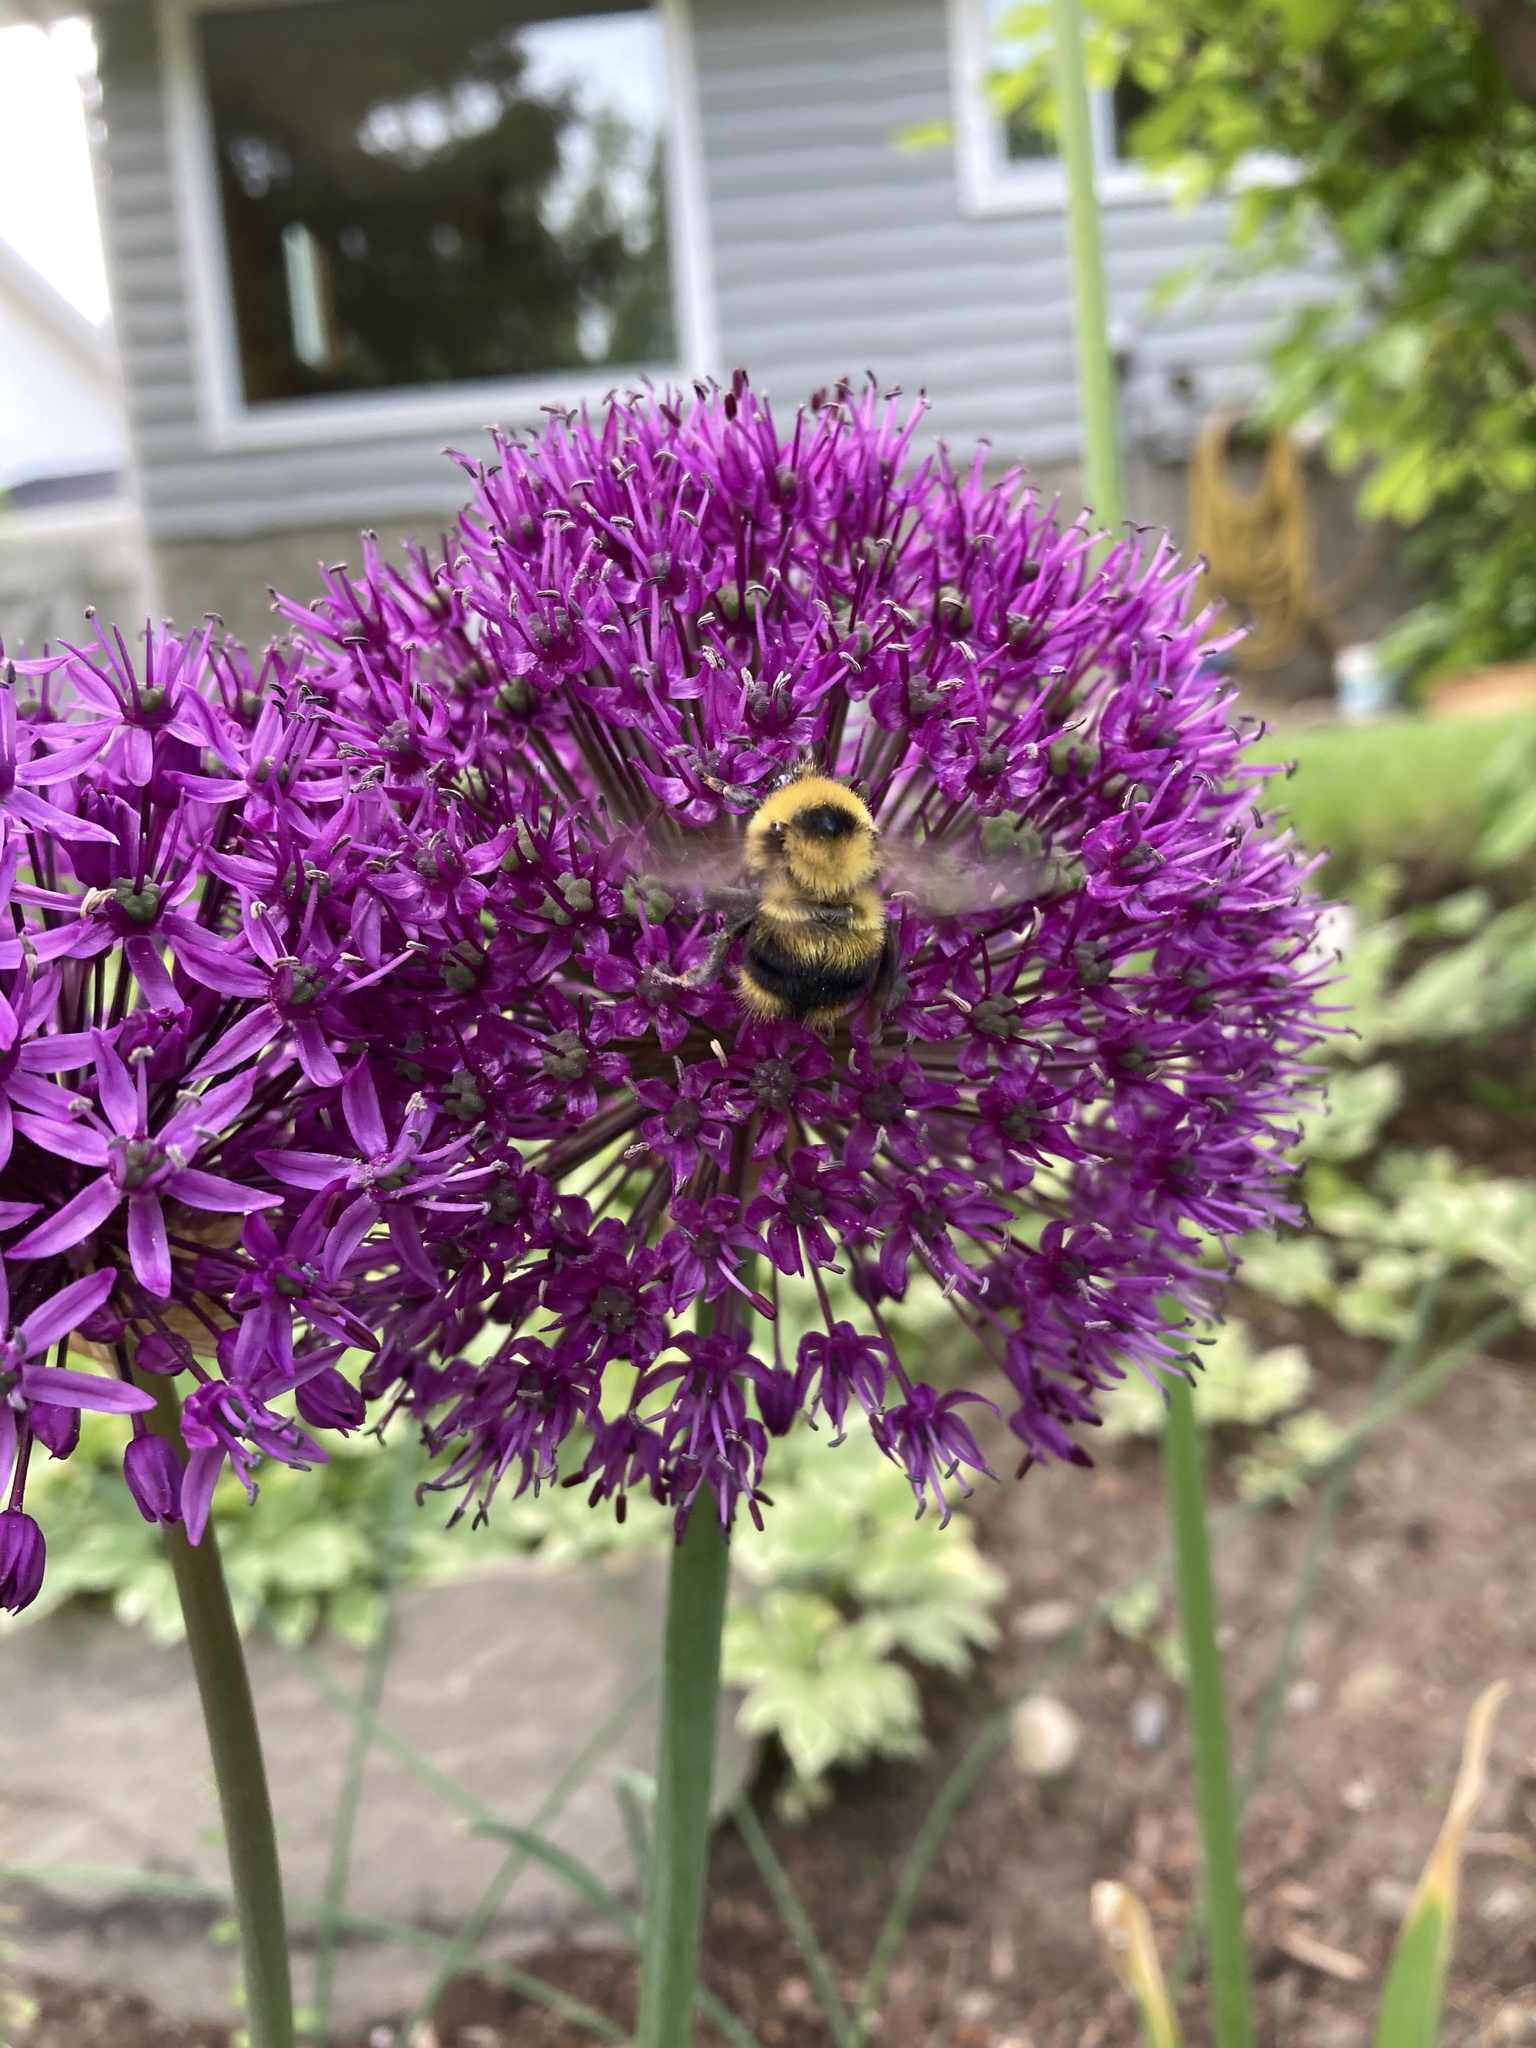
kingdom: Animalia
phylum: Arthropoda
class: Insecta
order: Hymenoptera
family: Apidae
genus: Bombus
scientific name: Bombus rufocinctus
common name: Red-belted bumble bee
